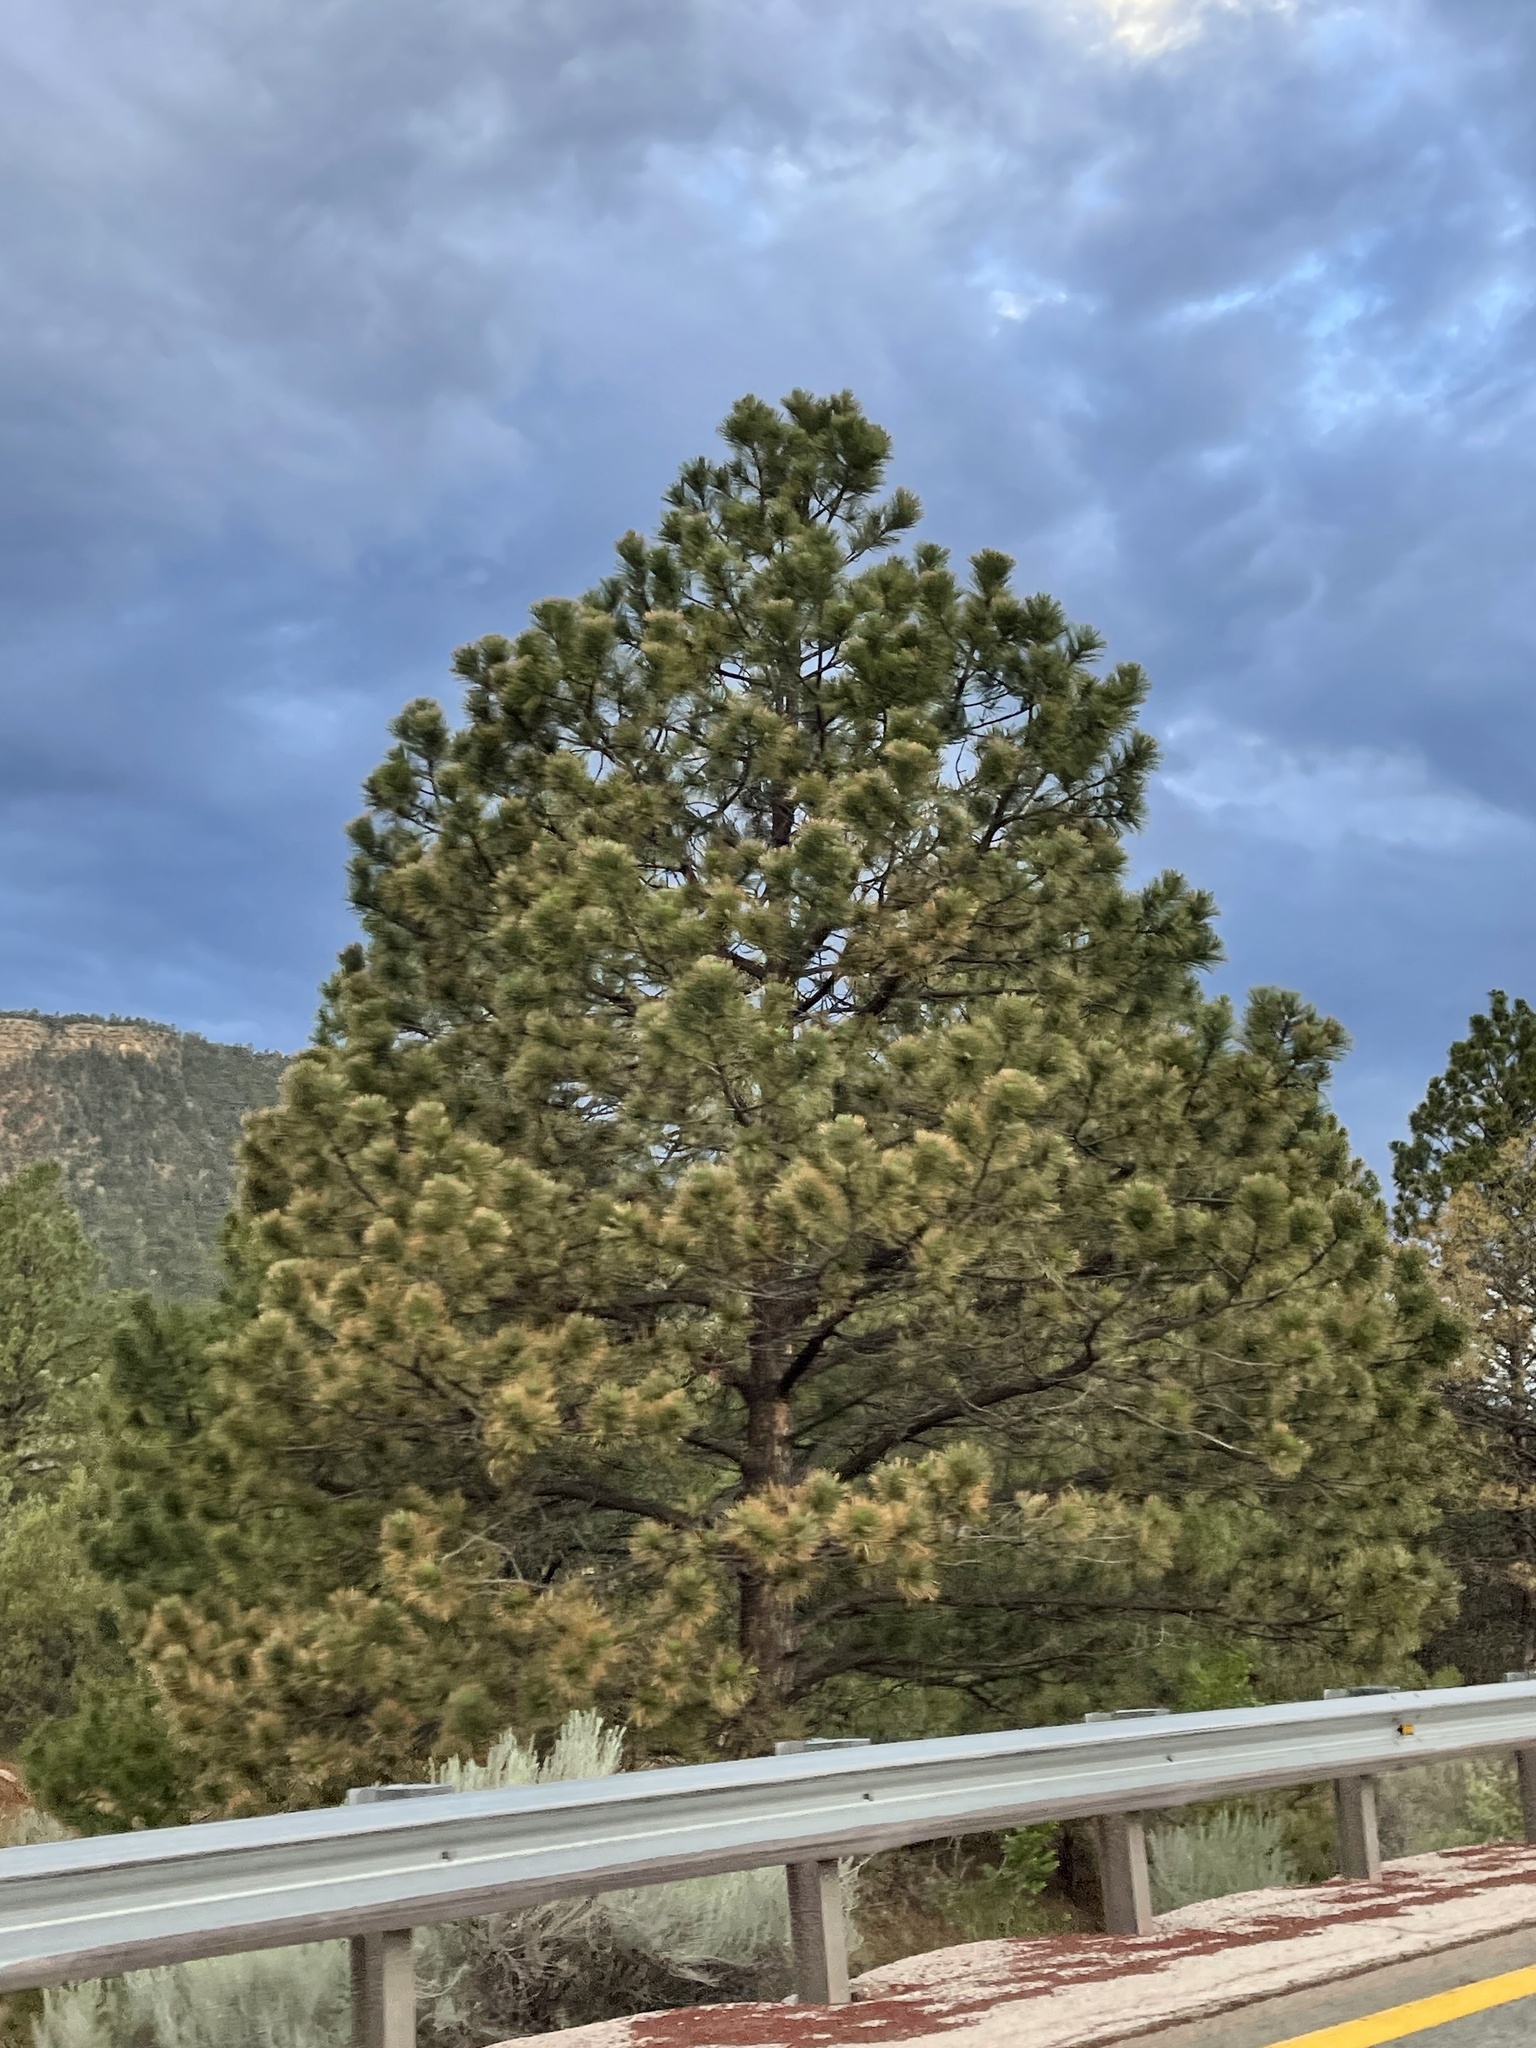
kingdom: Plantae
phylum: Tracheophyta
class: Pinopsida
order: Pinales
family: Pinaceae
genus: Pinus
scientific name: Pinus ponderosa
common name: Western yellow-pine
